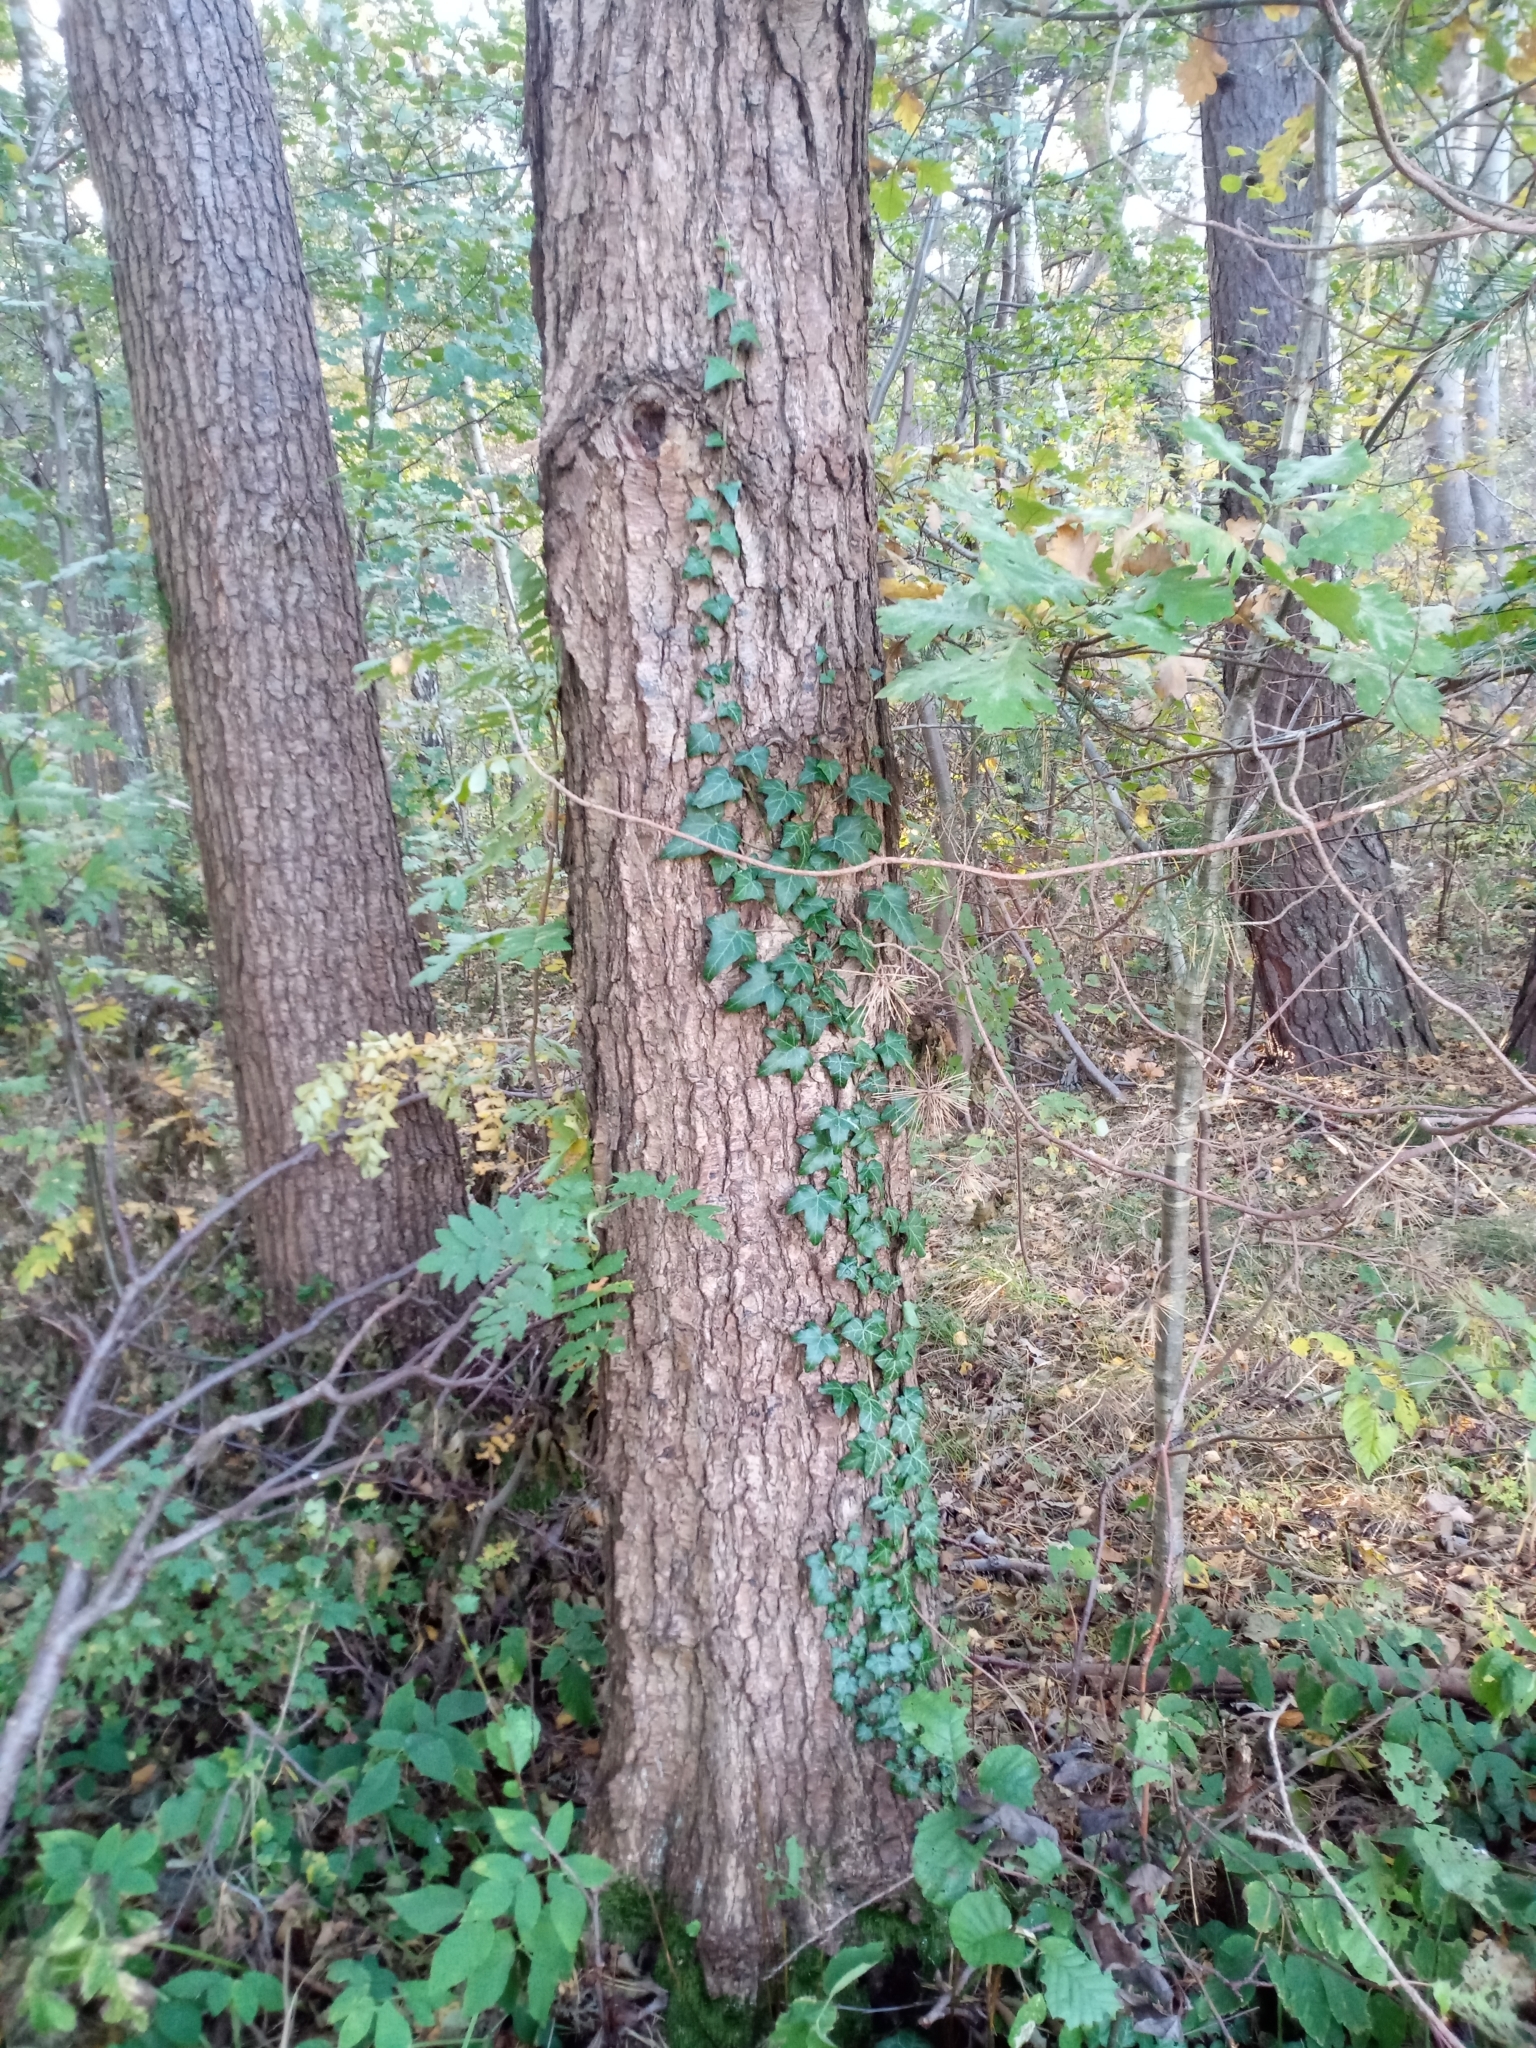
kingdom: Plantae
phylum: Tracheophyta
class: Magnoliopsida
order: Apiales
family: Araliaceae
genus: Hedera
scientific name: Hedera helix
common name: Ivy
